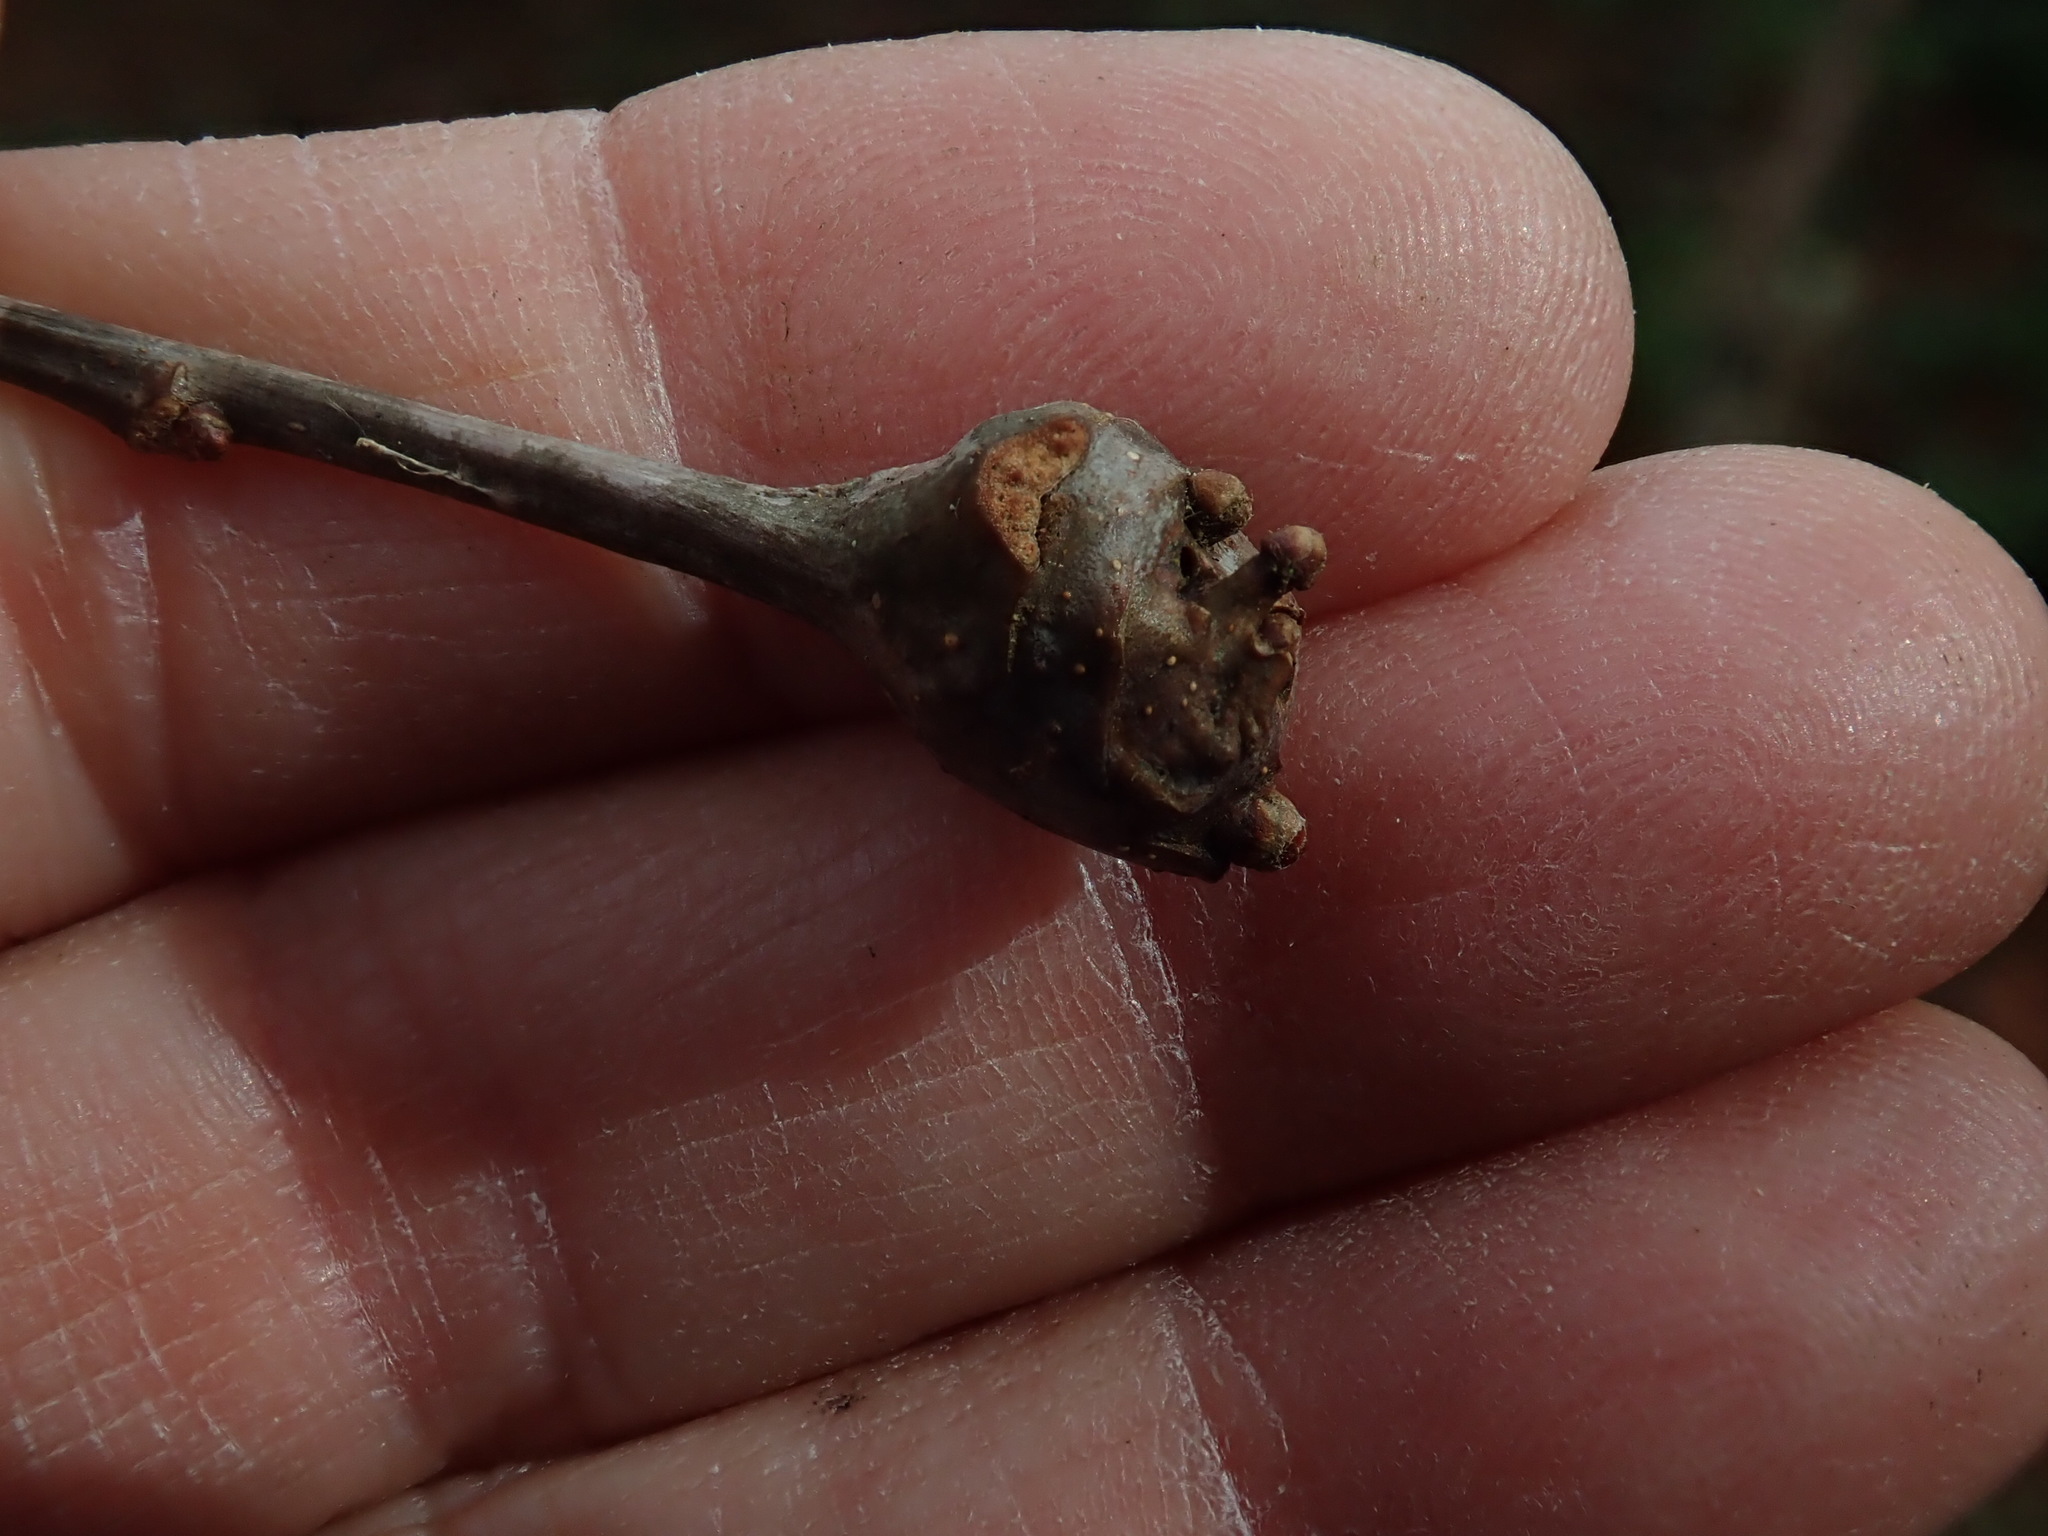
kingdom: Animalia
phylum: Arthropoda
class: Insecta
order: Hymenoptera
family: Cynipidae
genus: Callirhytis
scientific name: Callirhytis clavula
